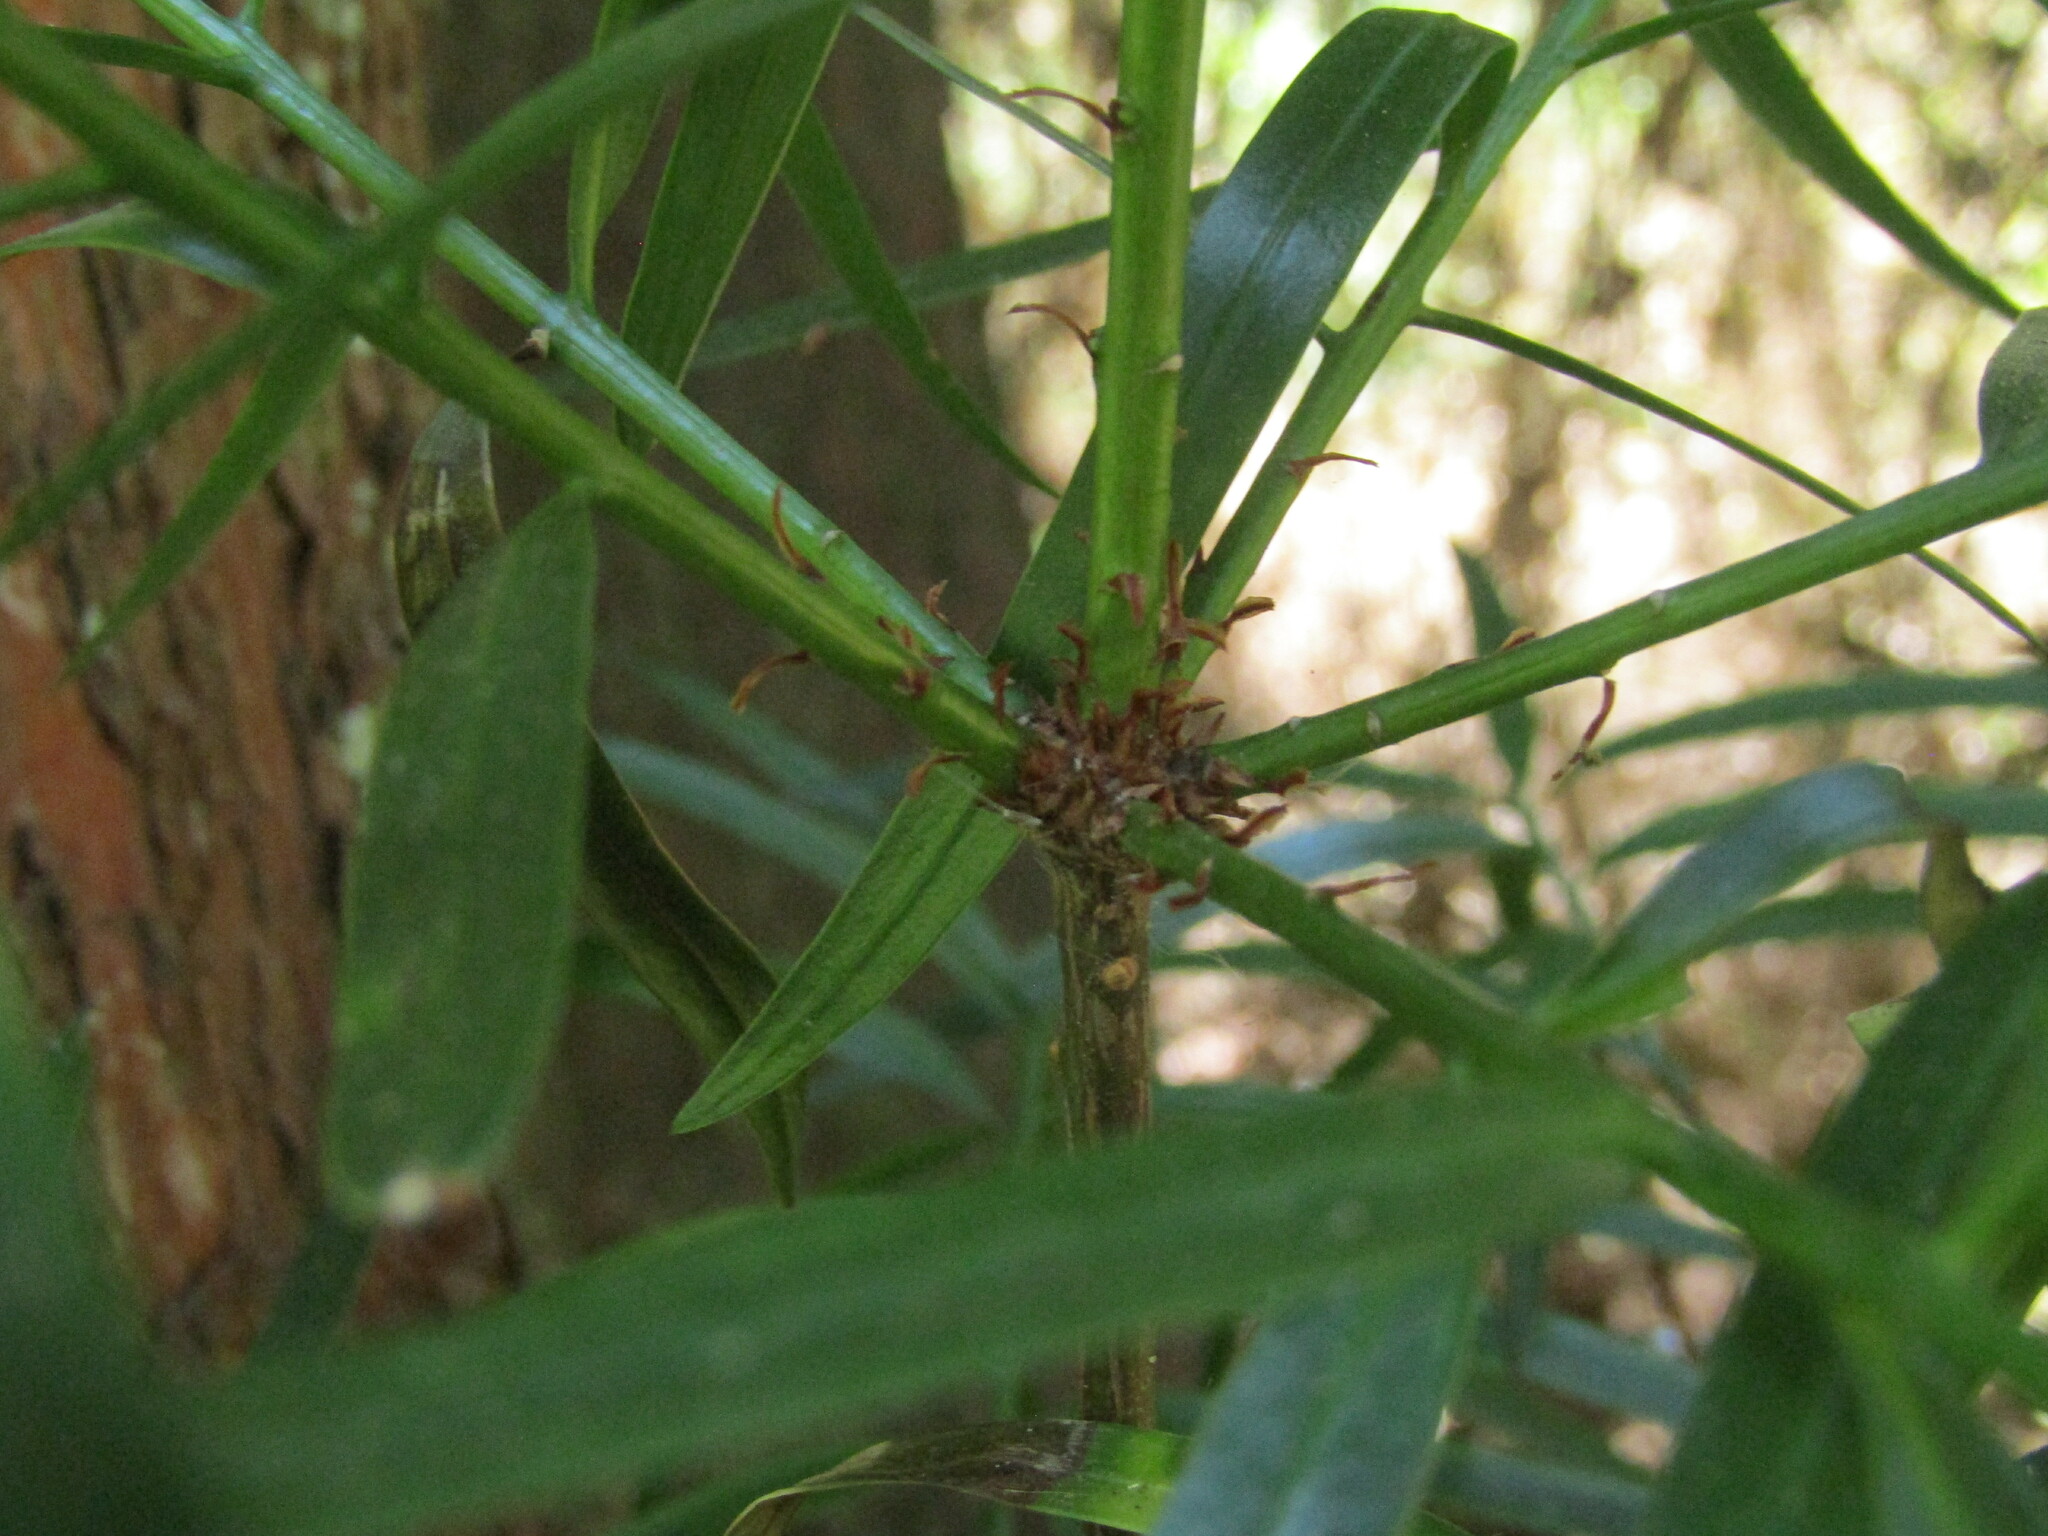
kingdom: Plantae
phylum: Tracheophyta
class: Pinopsida
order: Pinales
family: Podocarpaceae
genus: Podocarpus
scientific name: Podocarpus salignus
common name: Willow-leaf podocarp
